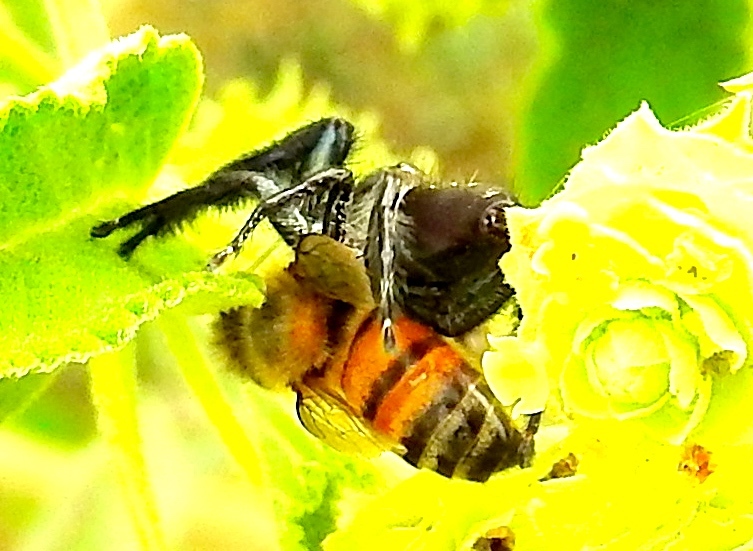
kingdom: Animalia
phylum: Arthropoda
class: Arachnida
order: Araneae
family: Salticidae
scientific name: Salticidae
